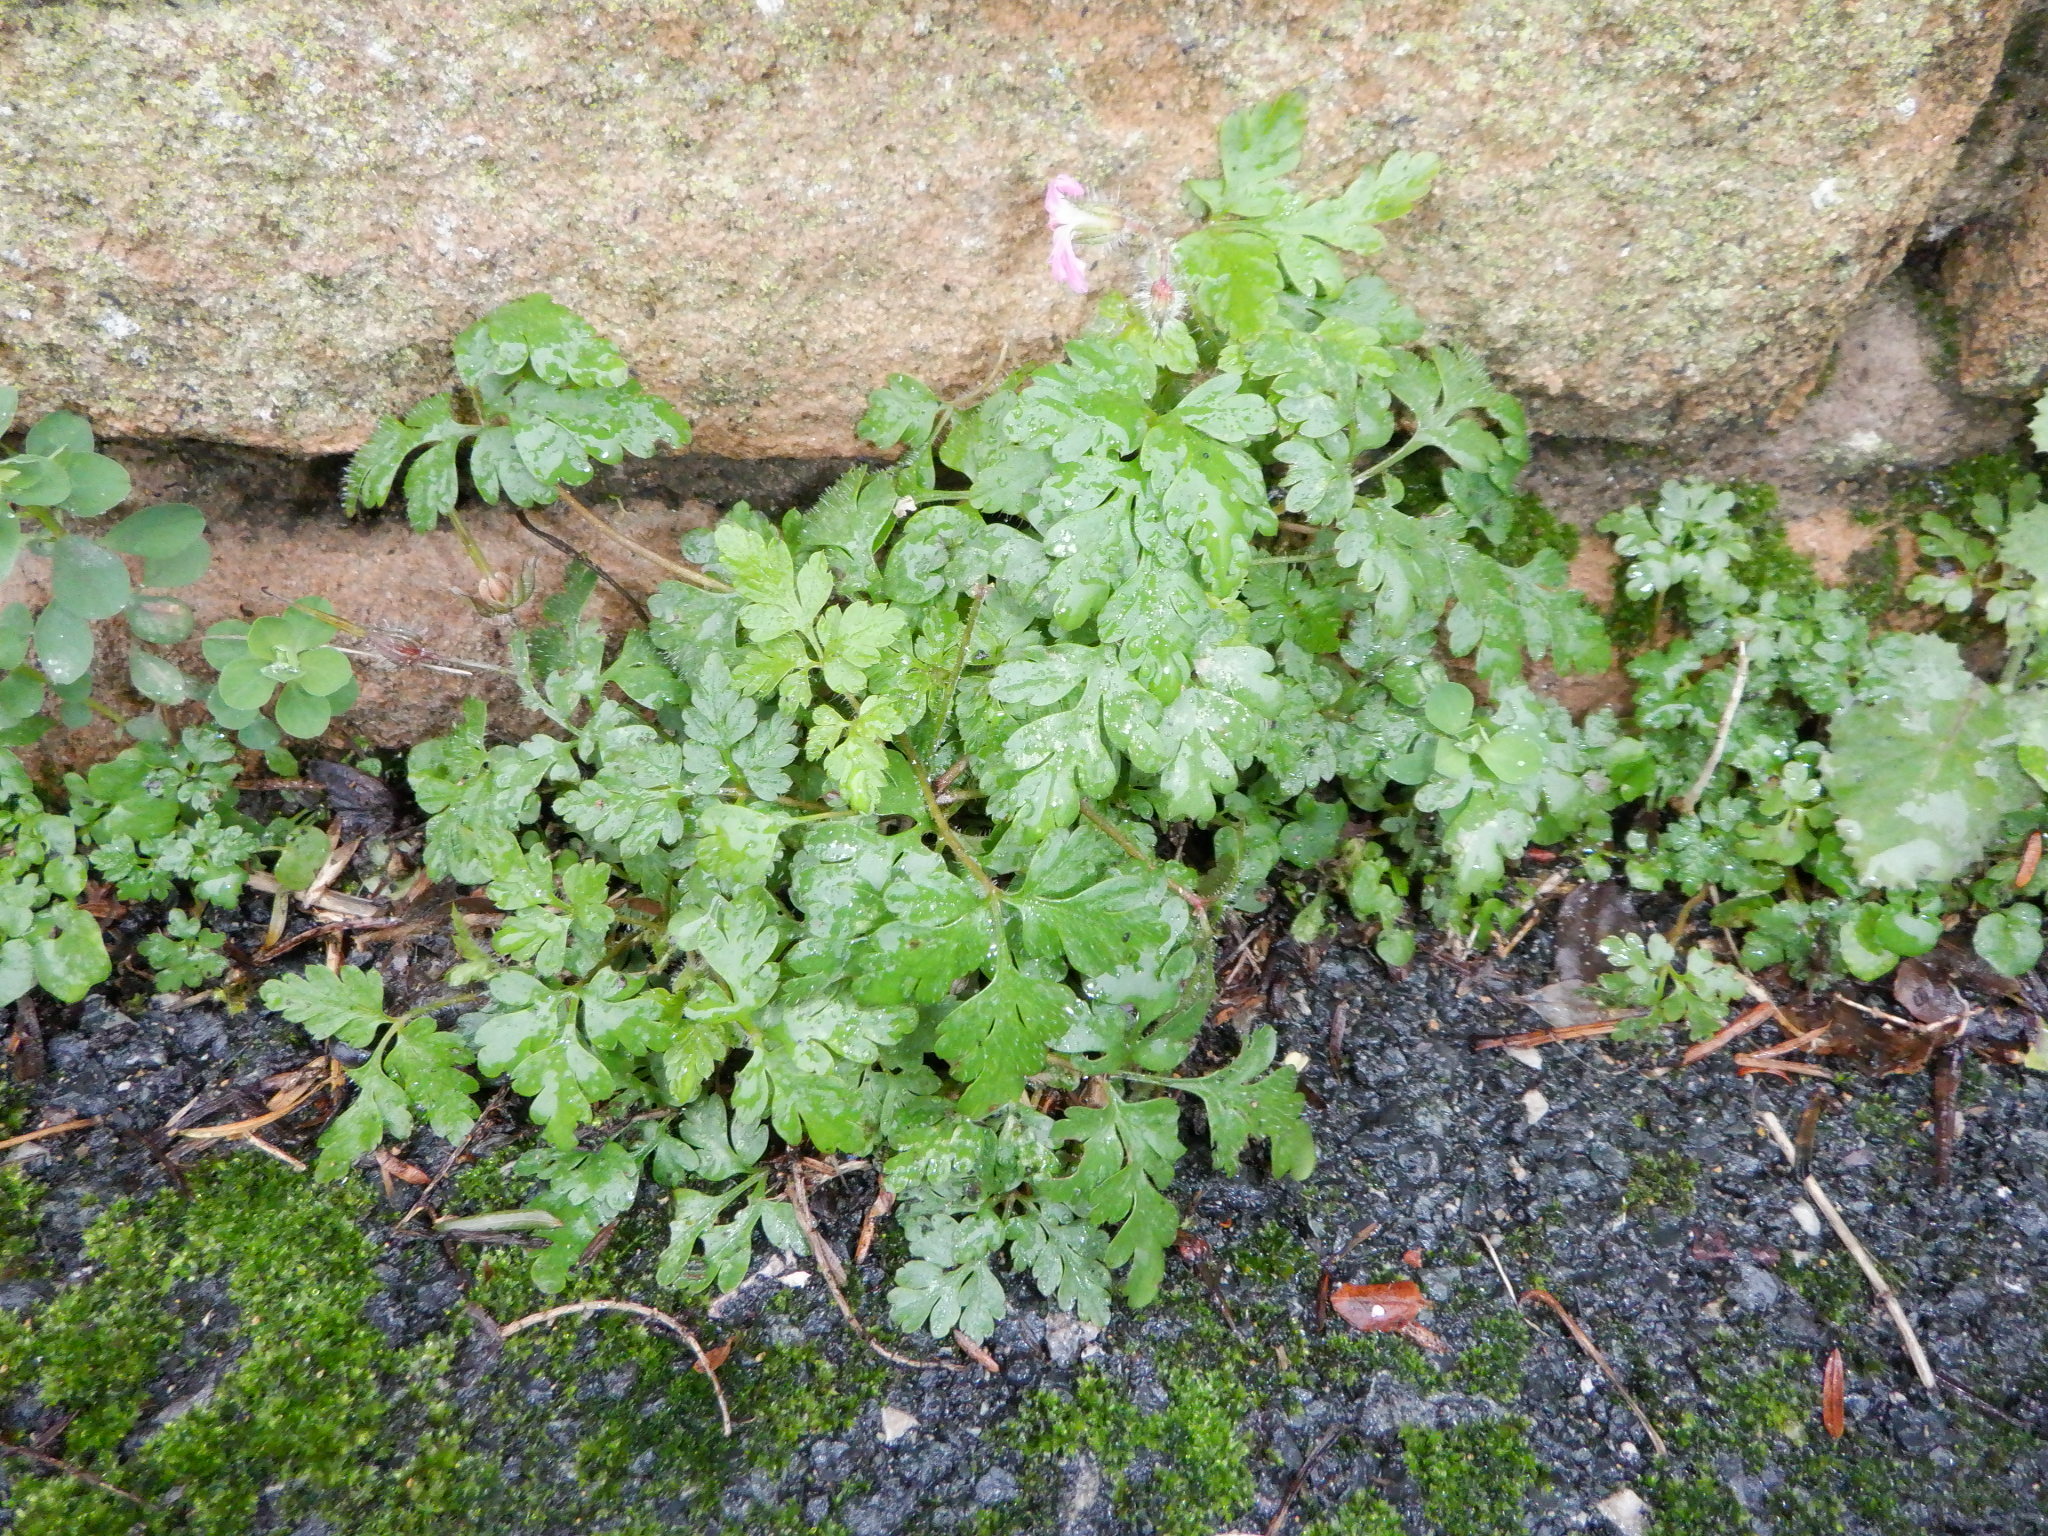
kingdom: Plantae
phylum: Tracheophyta
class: Magnoliopsida
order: Geraniales
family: Geraniaceae
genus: Geranium
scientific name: Geranium robertianum
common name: Herb-robert
